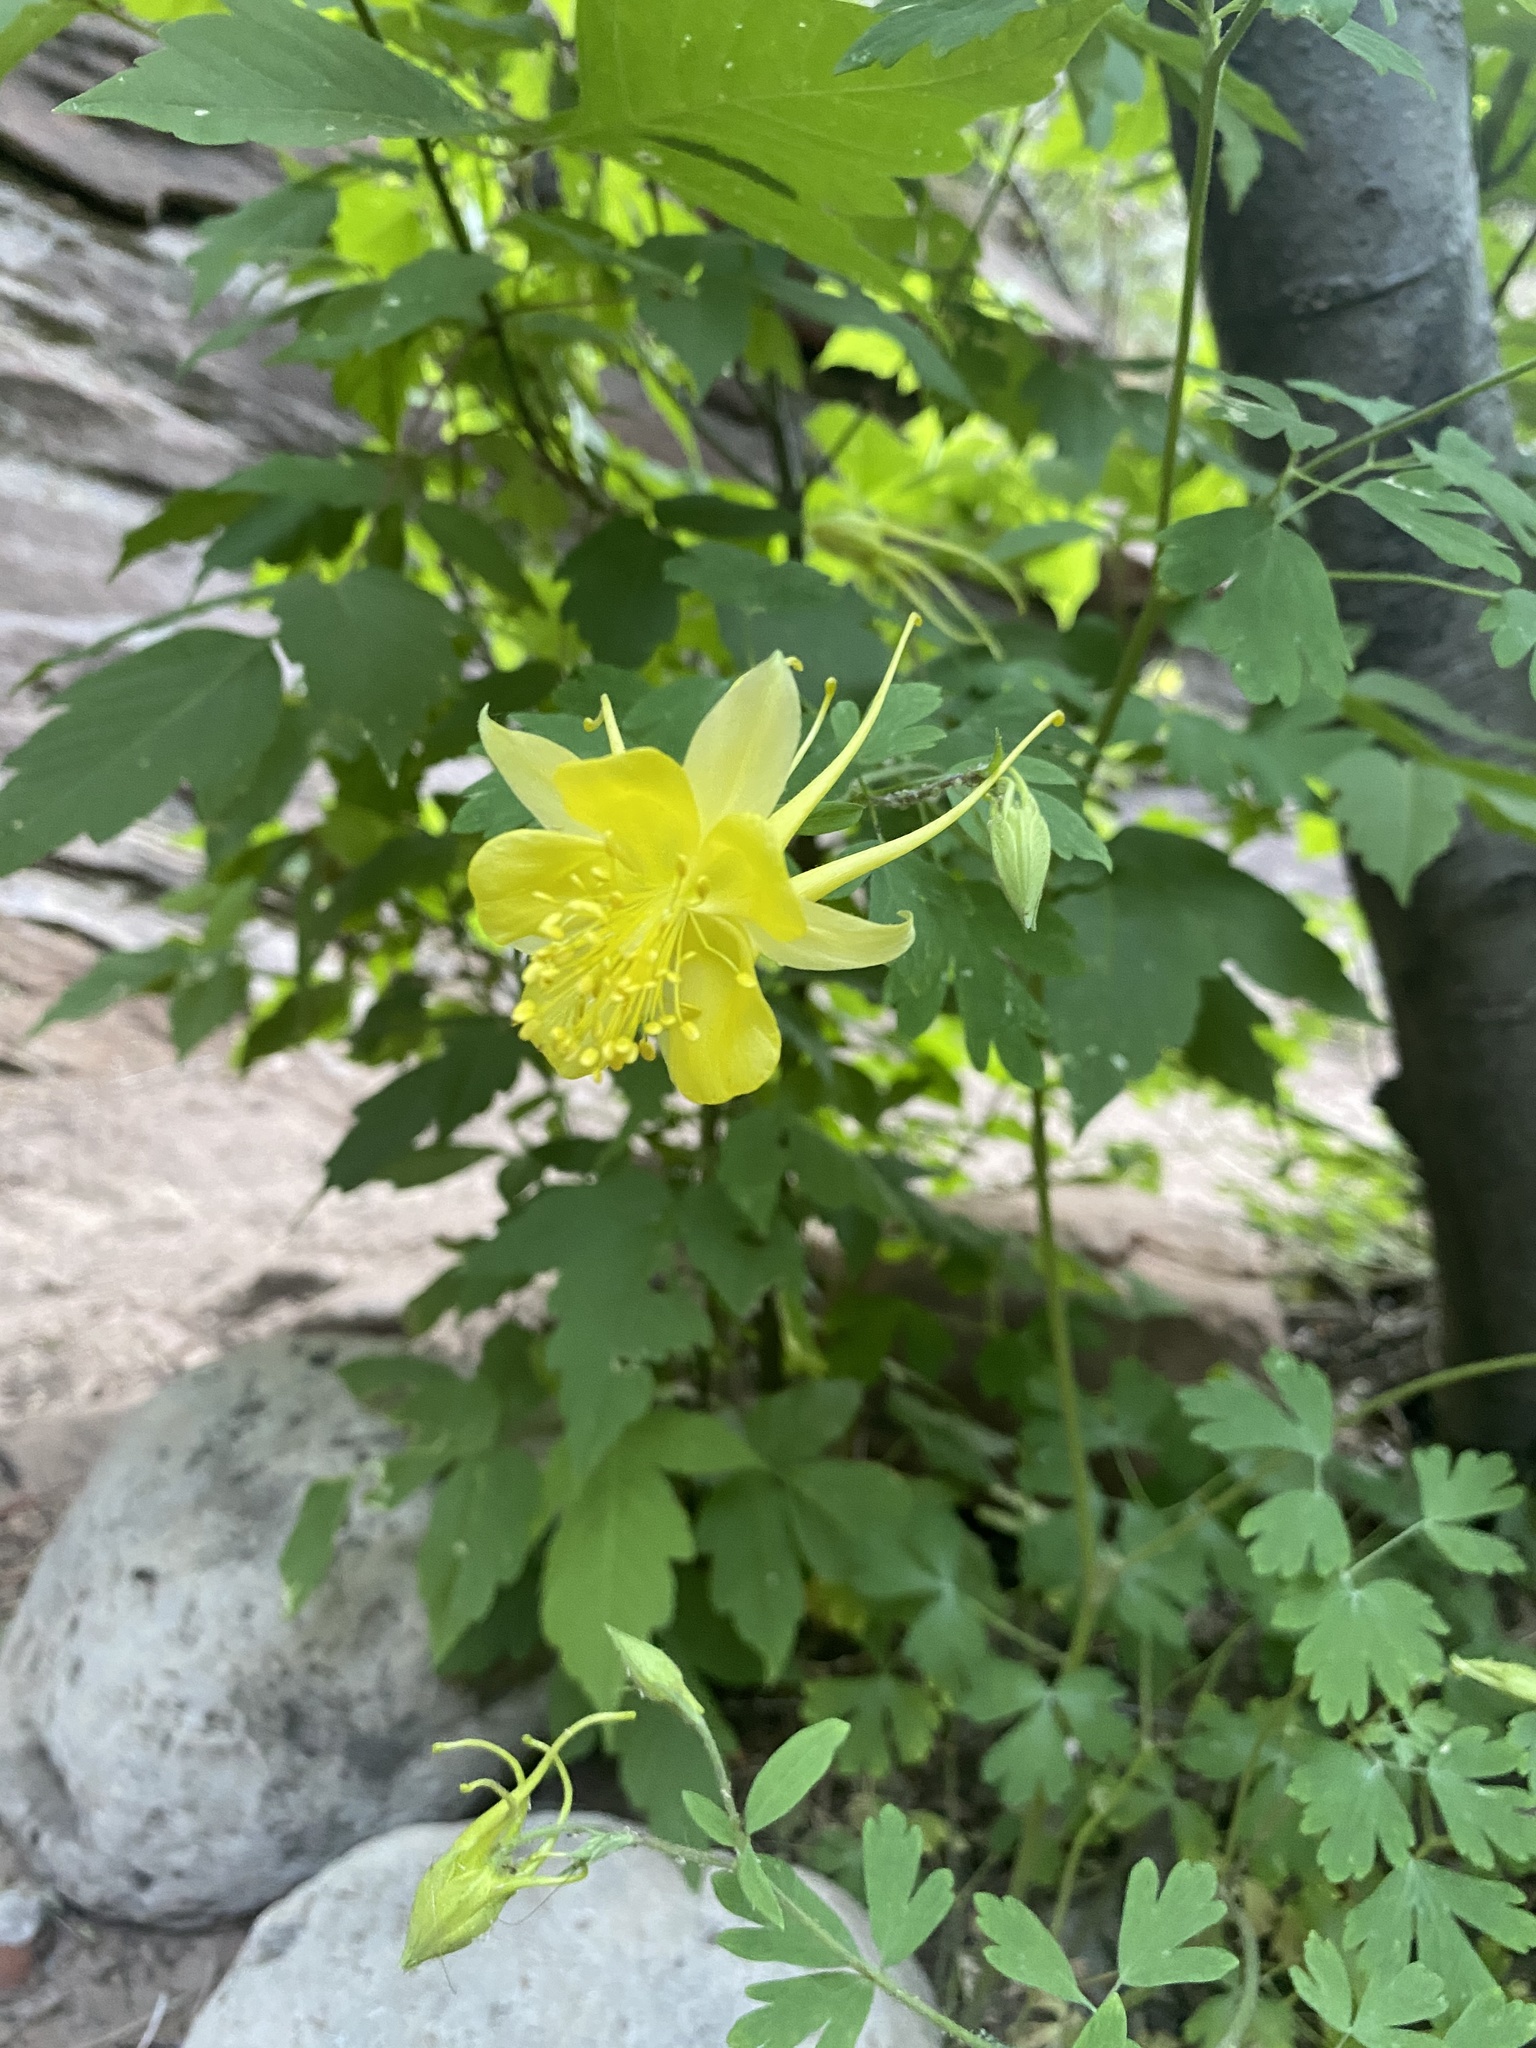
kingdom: Plantae
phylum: Tracheophyta
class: Magnoliopsida
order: Ranunculales
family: Ranunculaceae
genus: Aquilegia
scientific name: Aquilegia chrysantha
